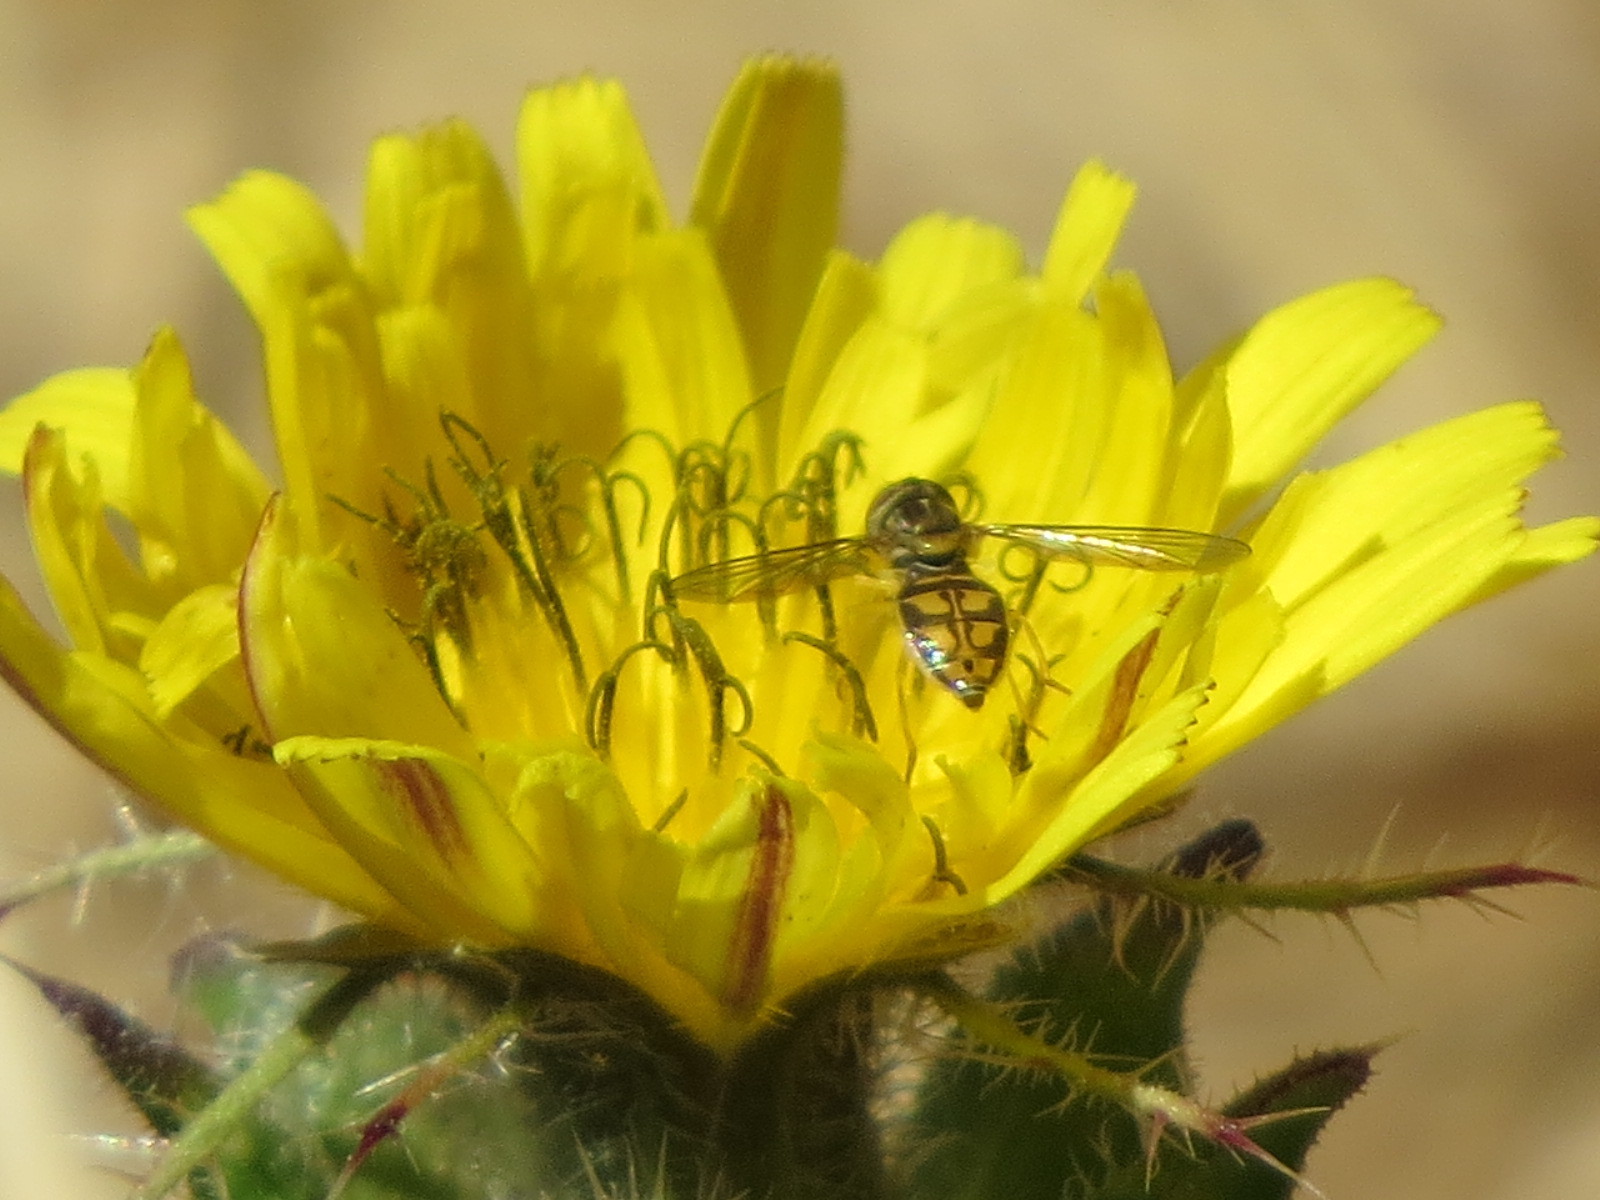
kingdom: Animalia
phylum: Arthropoda
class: Insecta
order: Diptera
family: Syrphidae
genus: Toxomerus
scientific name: Toxomerus marginatus
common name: Syrphid fly
